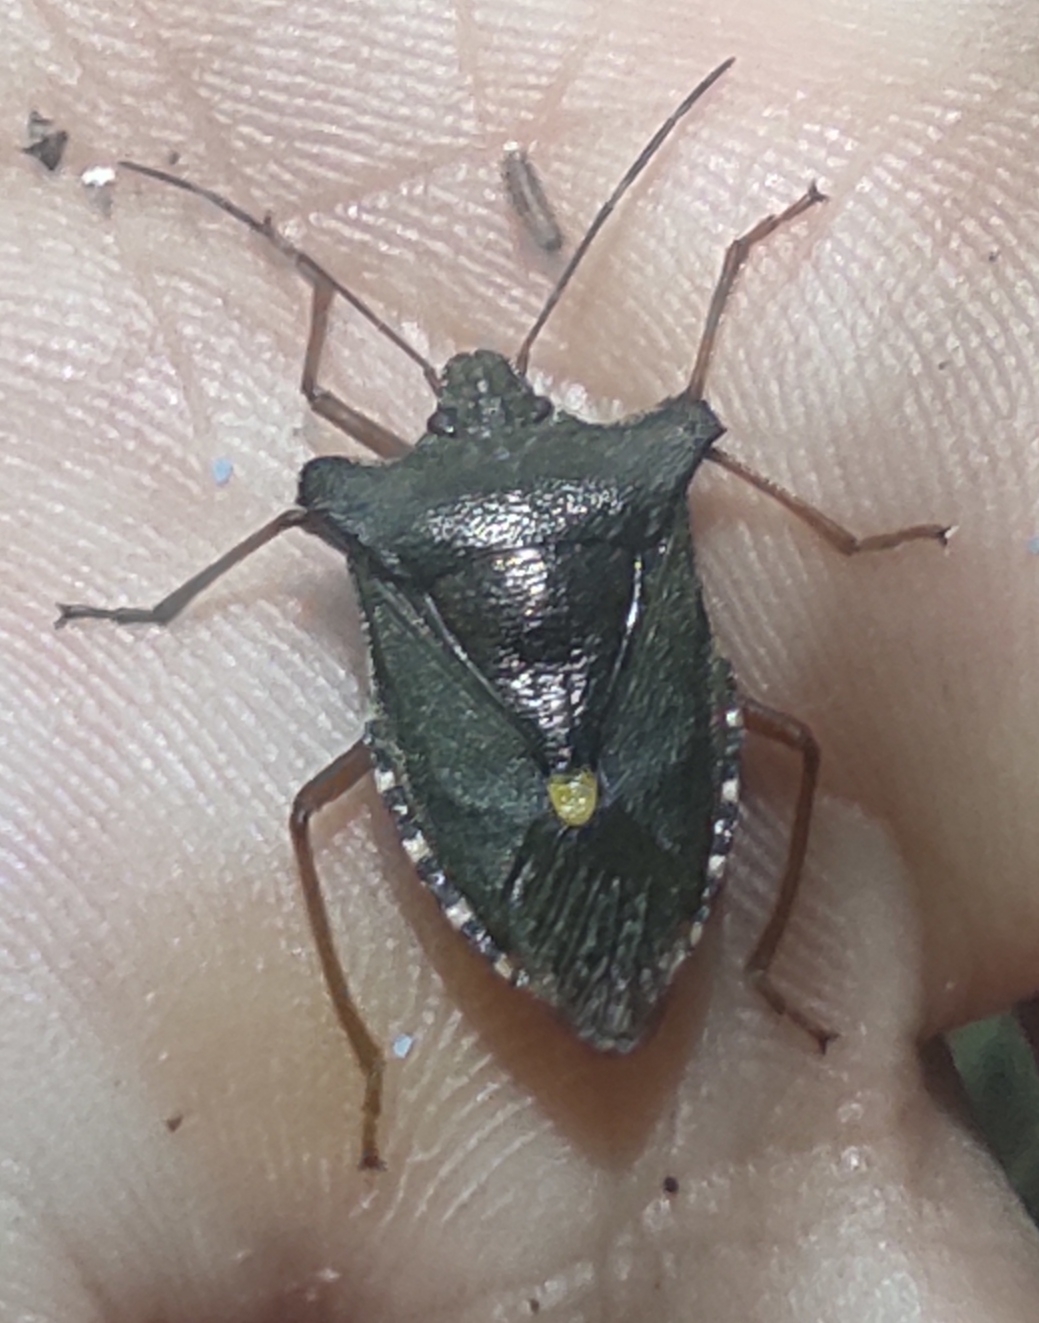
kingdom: Animalia
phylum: Arthropoda
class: Insecta
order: Hemiptera
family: Pentatomidae
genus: Pentatoma
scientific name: Pentatoma rufipes
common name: Forest bug
